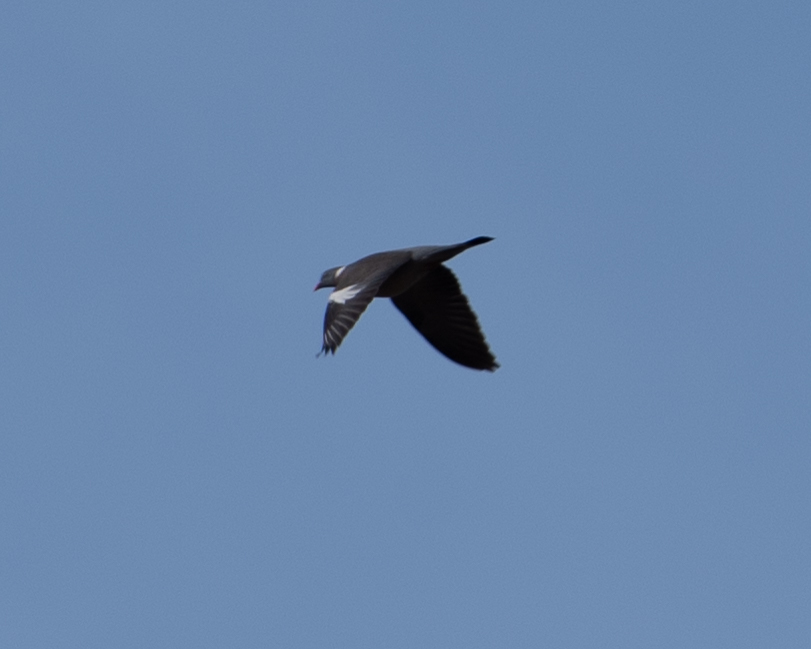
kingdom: Animalia
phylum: Chordata
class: Aves
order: Columbiformes
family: Columbidae
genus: Columba
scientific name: Columba palumbus
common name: Common wood pigeon
